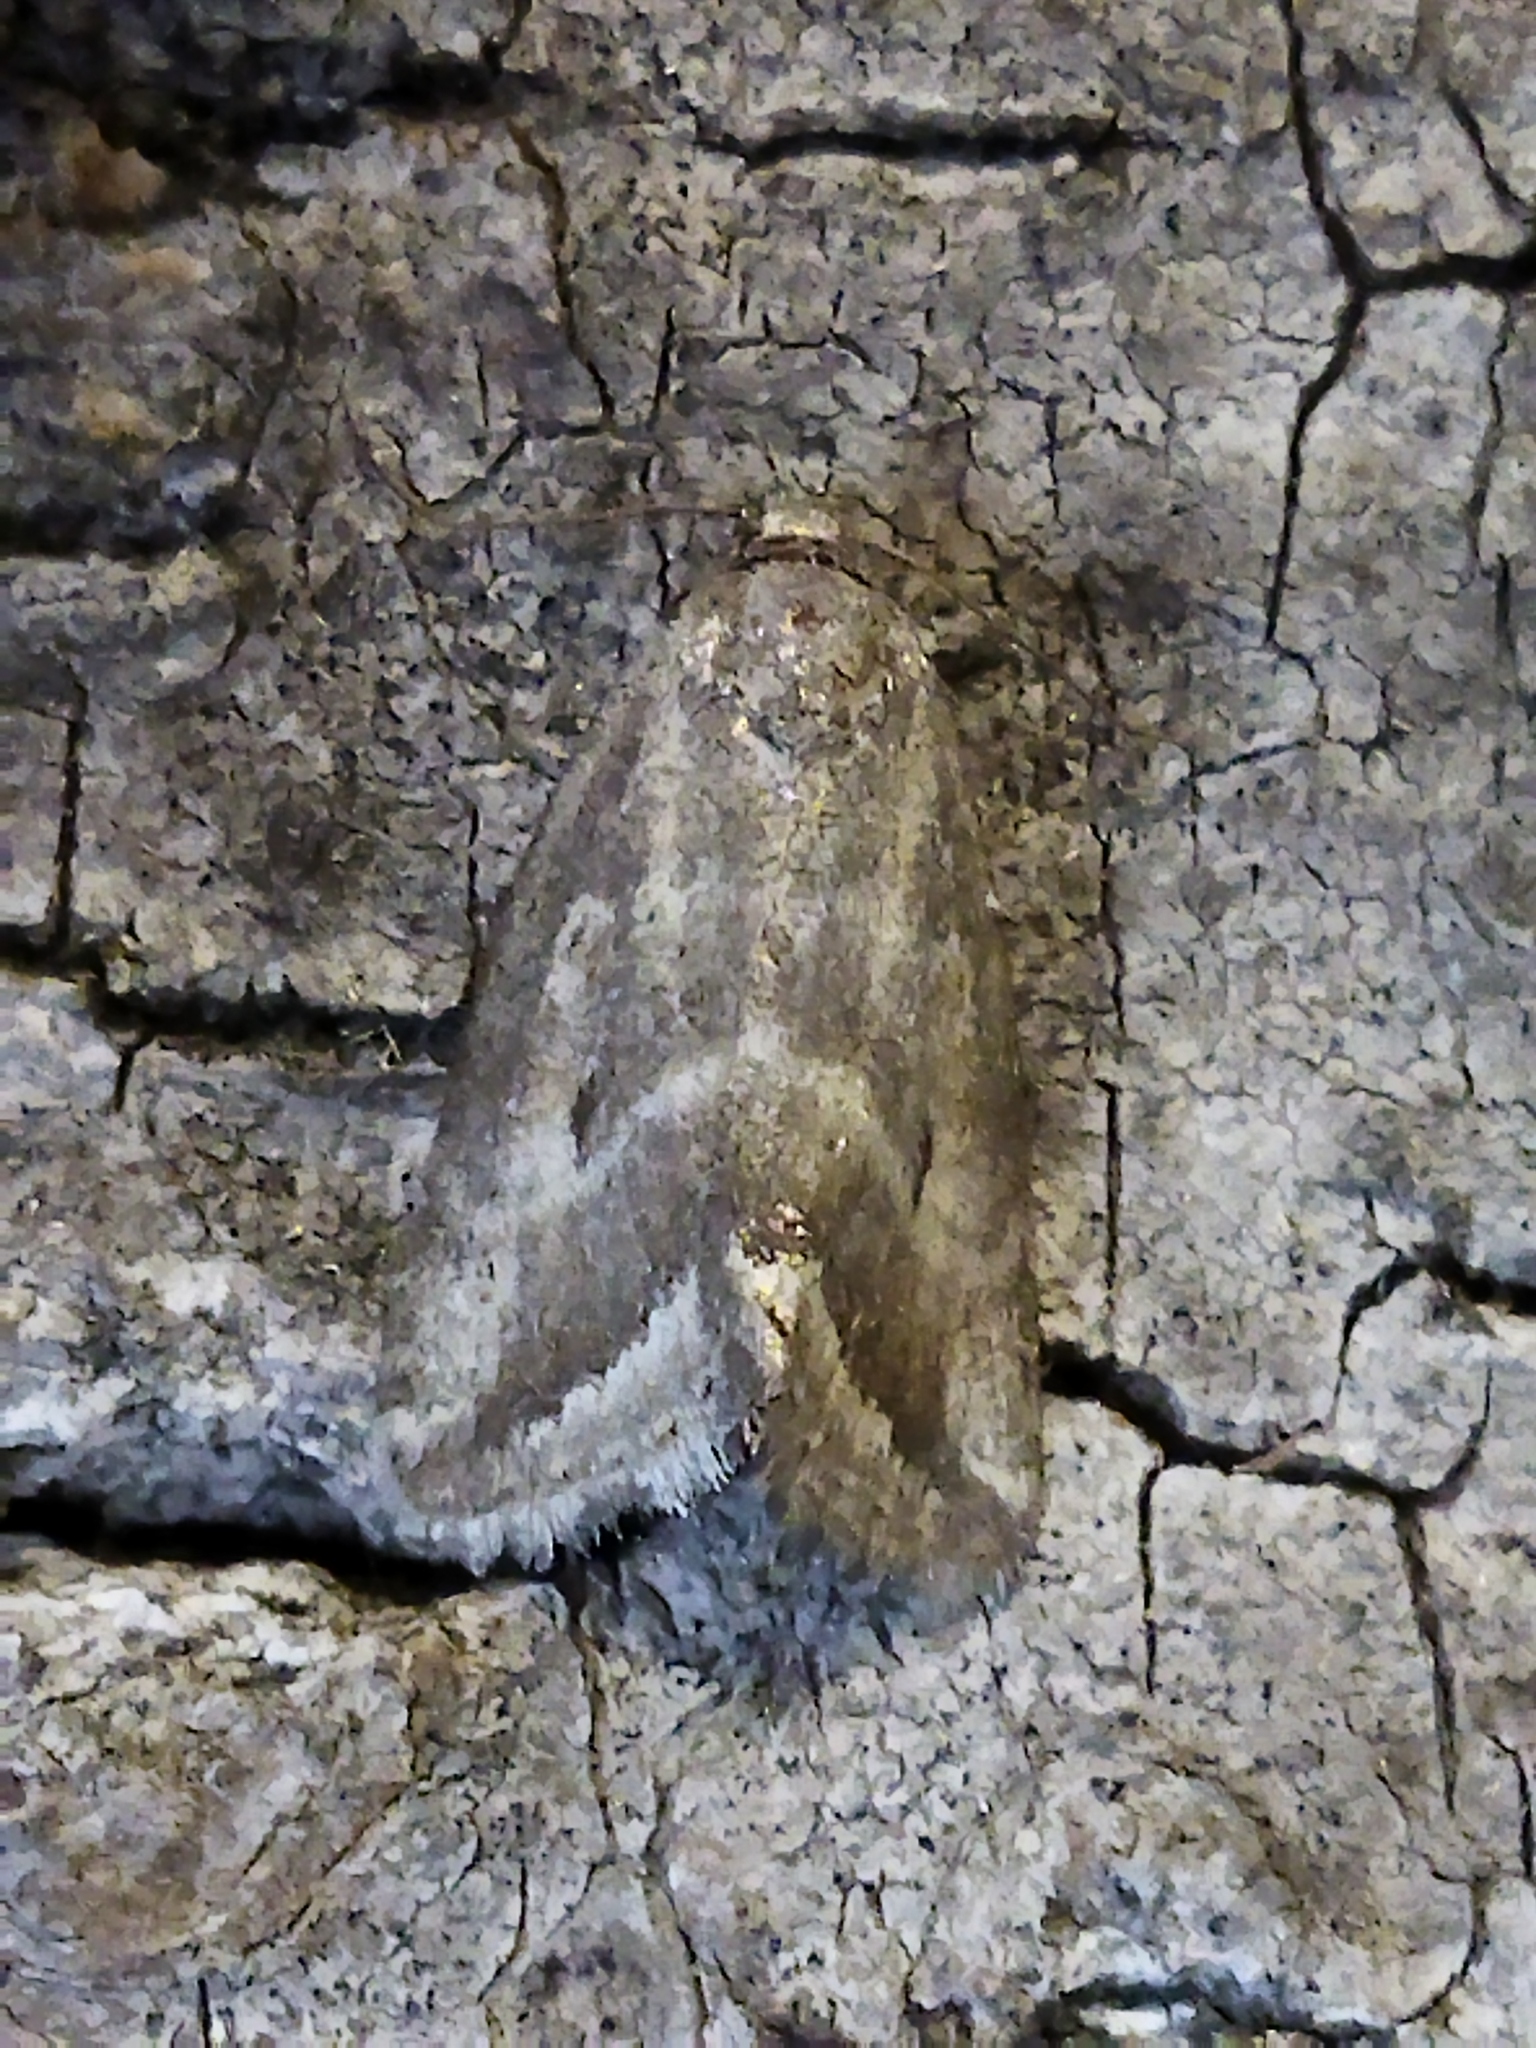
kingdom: Animalia
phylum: Arthropoda
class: Insecta
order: Lepidoptera
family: Noctuidae
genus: Phyllophila
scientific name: Phyllophila obliterata
